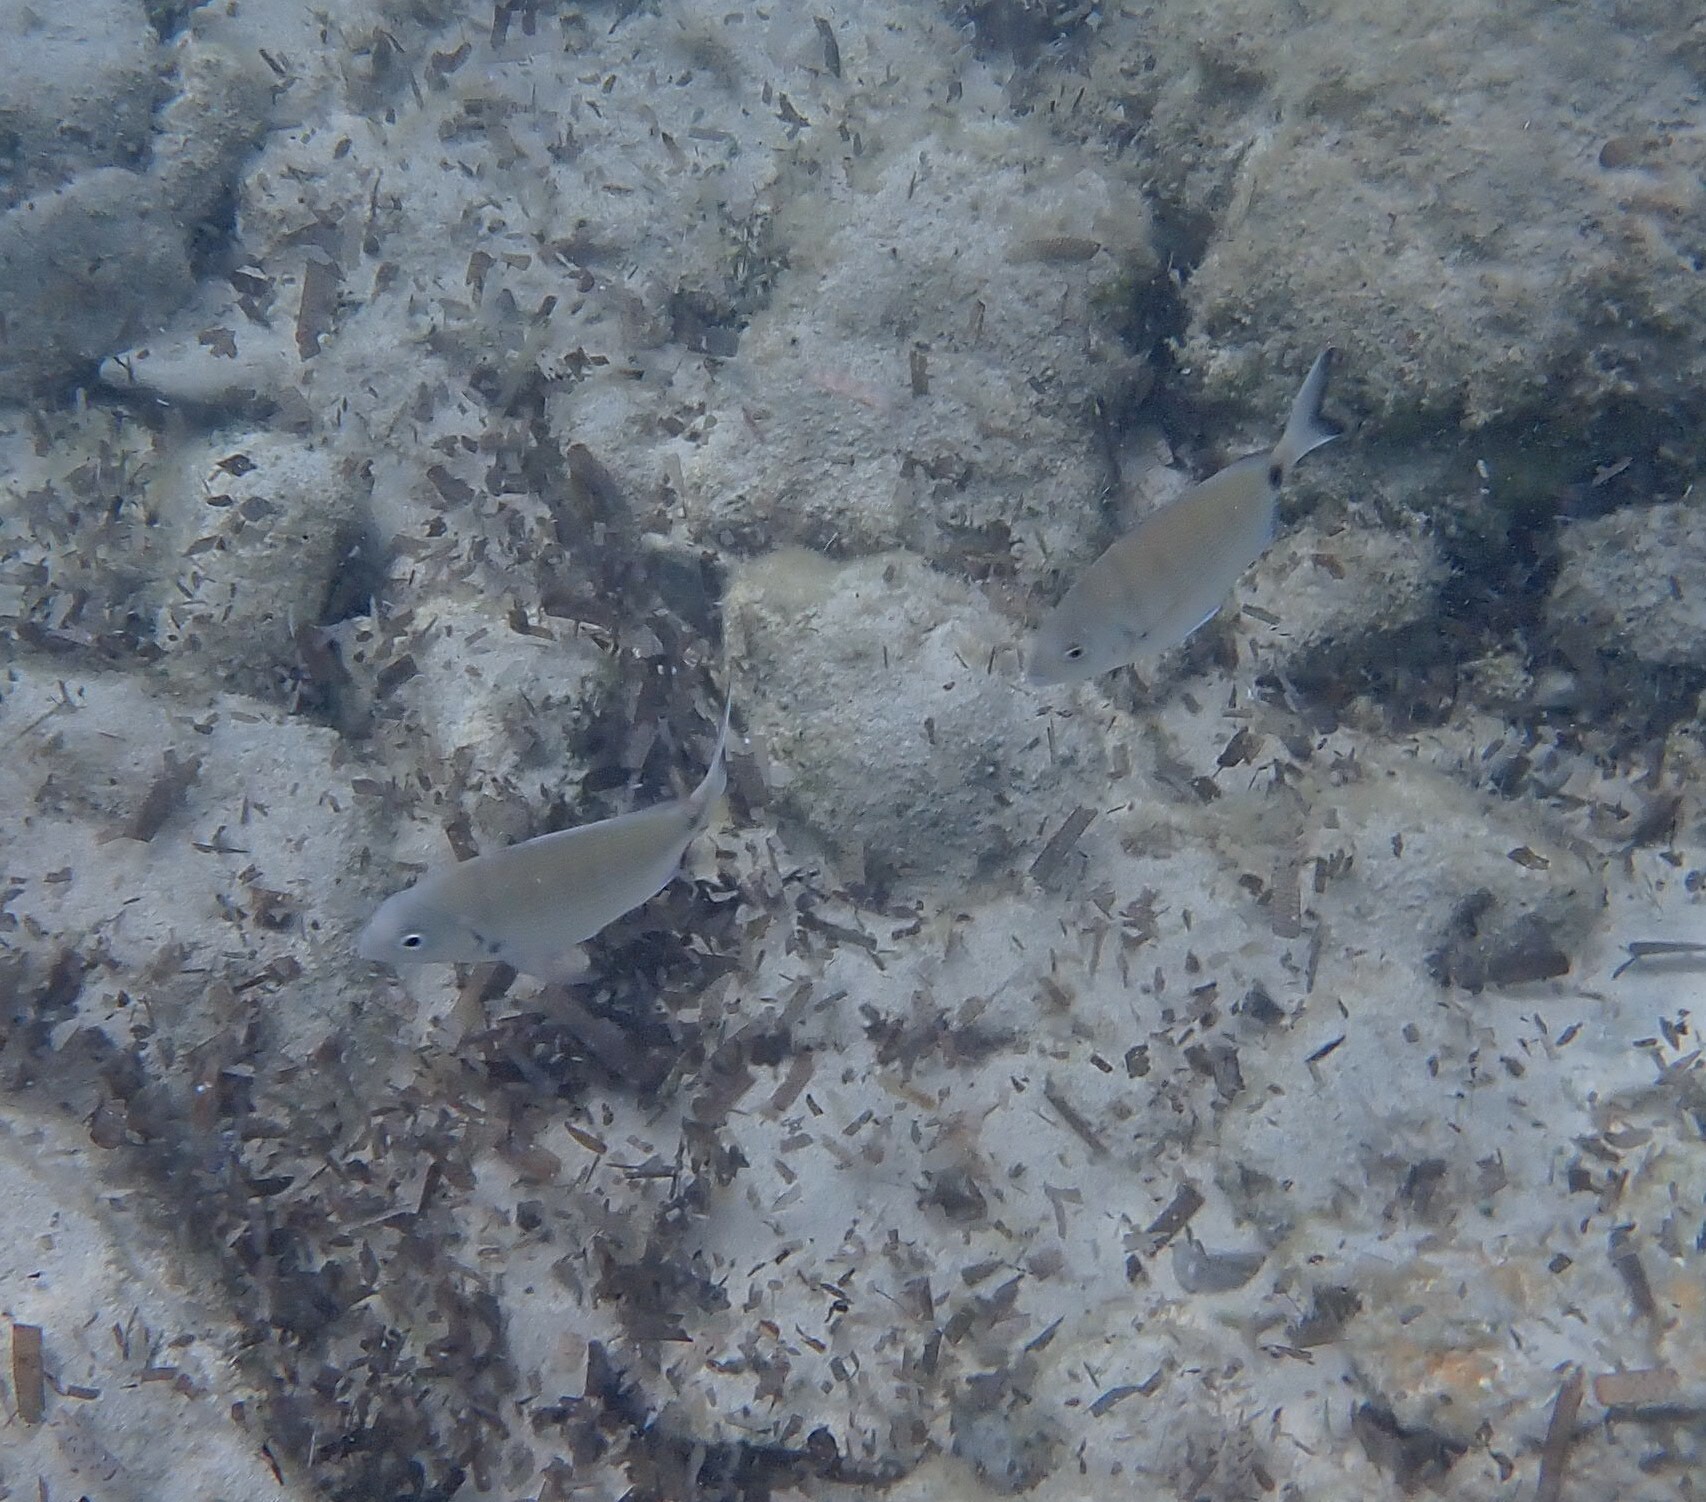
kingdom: Animalia
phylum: Chordata
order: Perciformes
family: Sparidae
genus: Diplodus
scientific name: Diplodus sargus
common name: White seabream
